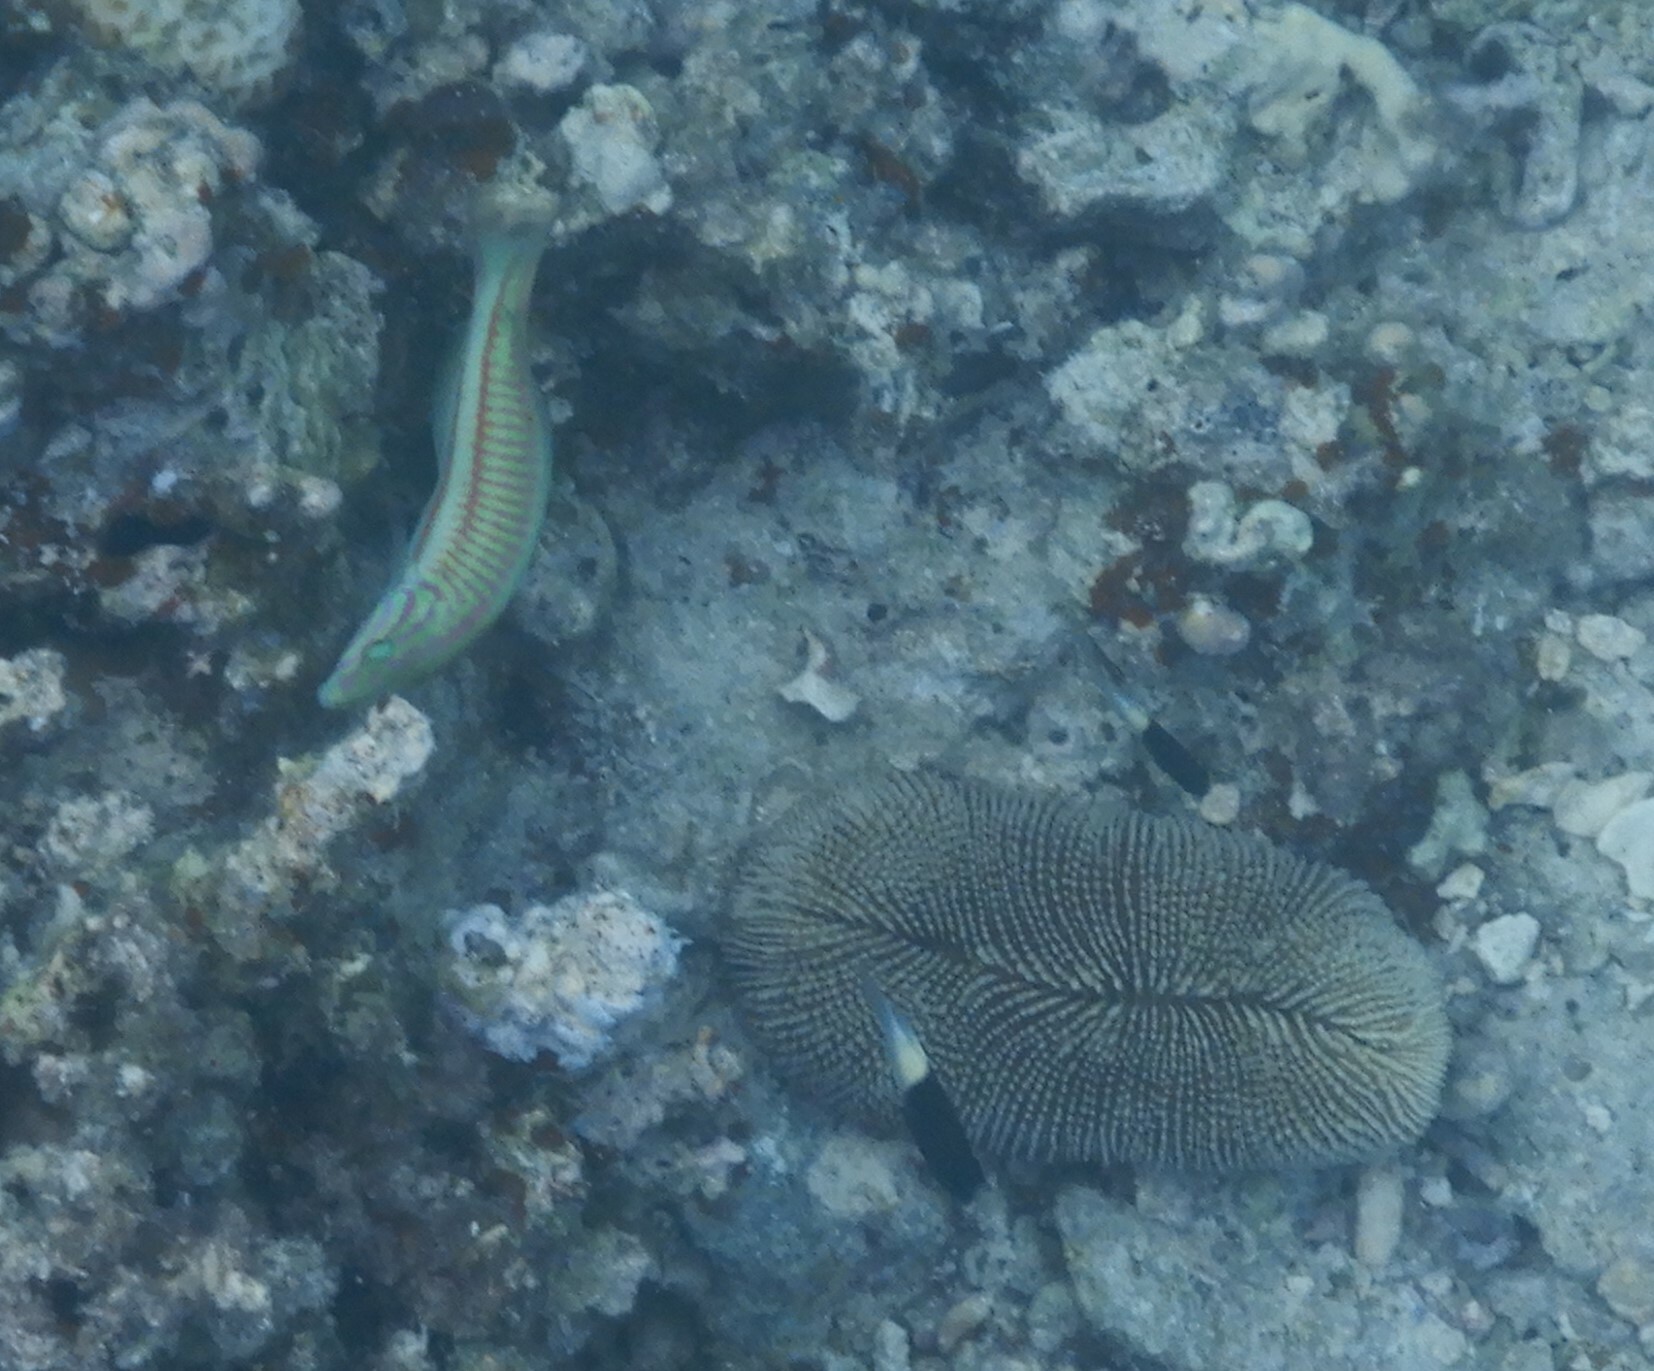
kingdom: Animalia
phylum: Chordata
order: Perciformes
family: Labridae
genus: Thalassoma
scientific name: Thalassoma rueppellii
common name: Klunzinger's wrasse
